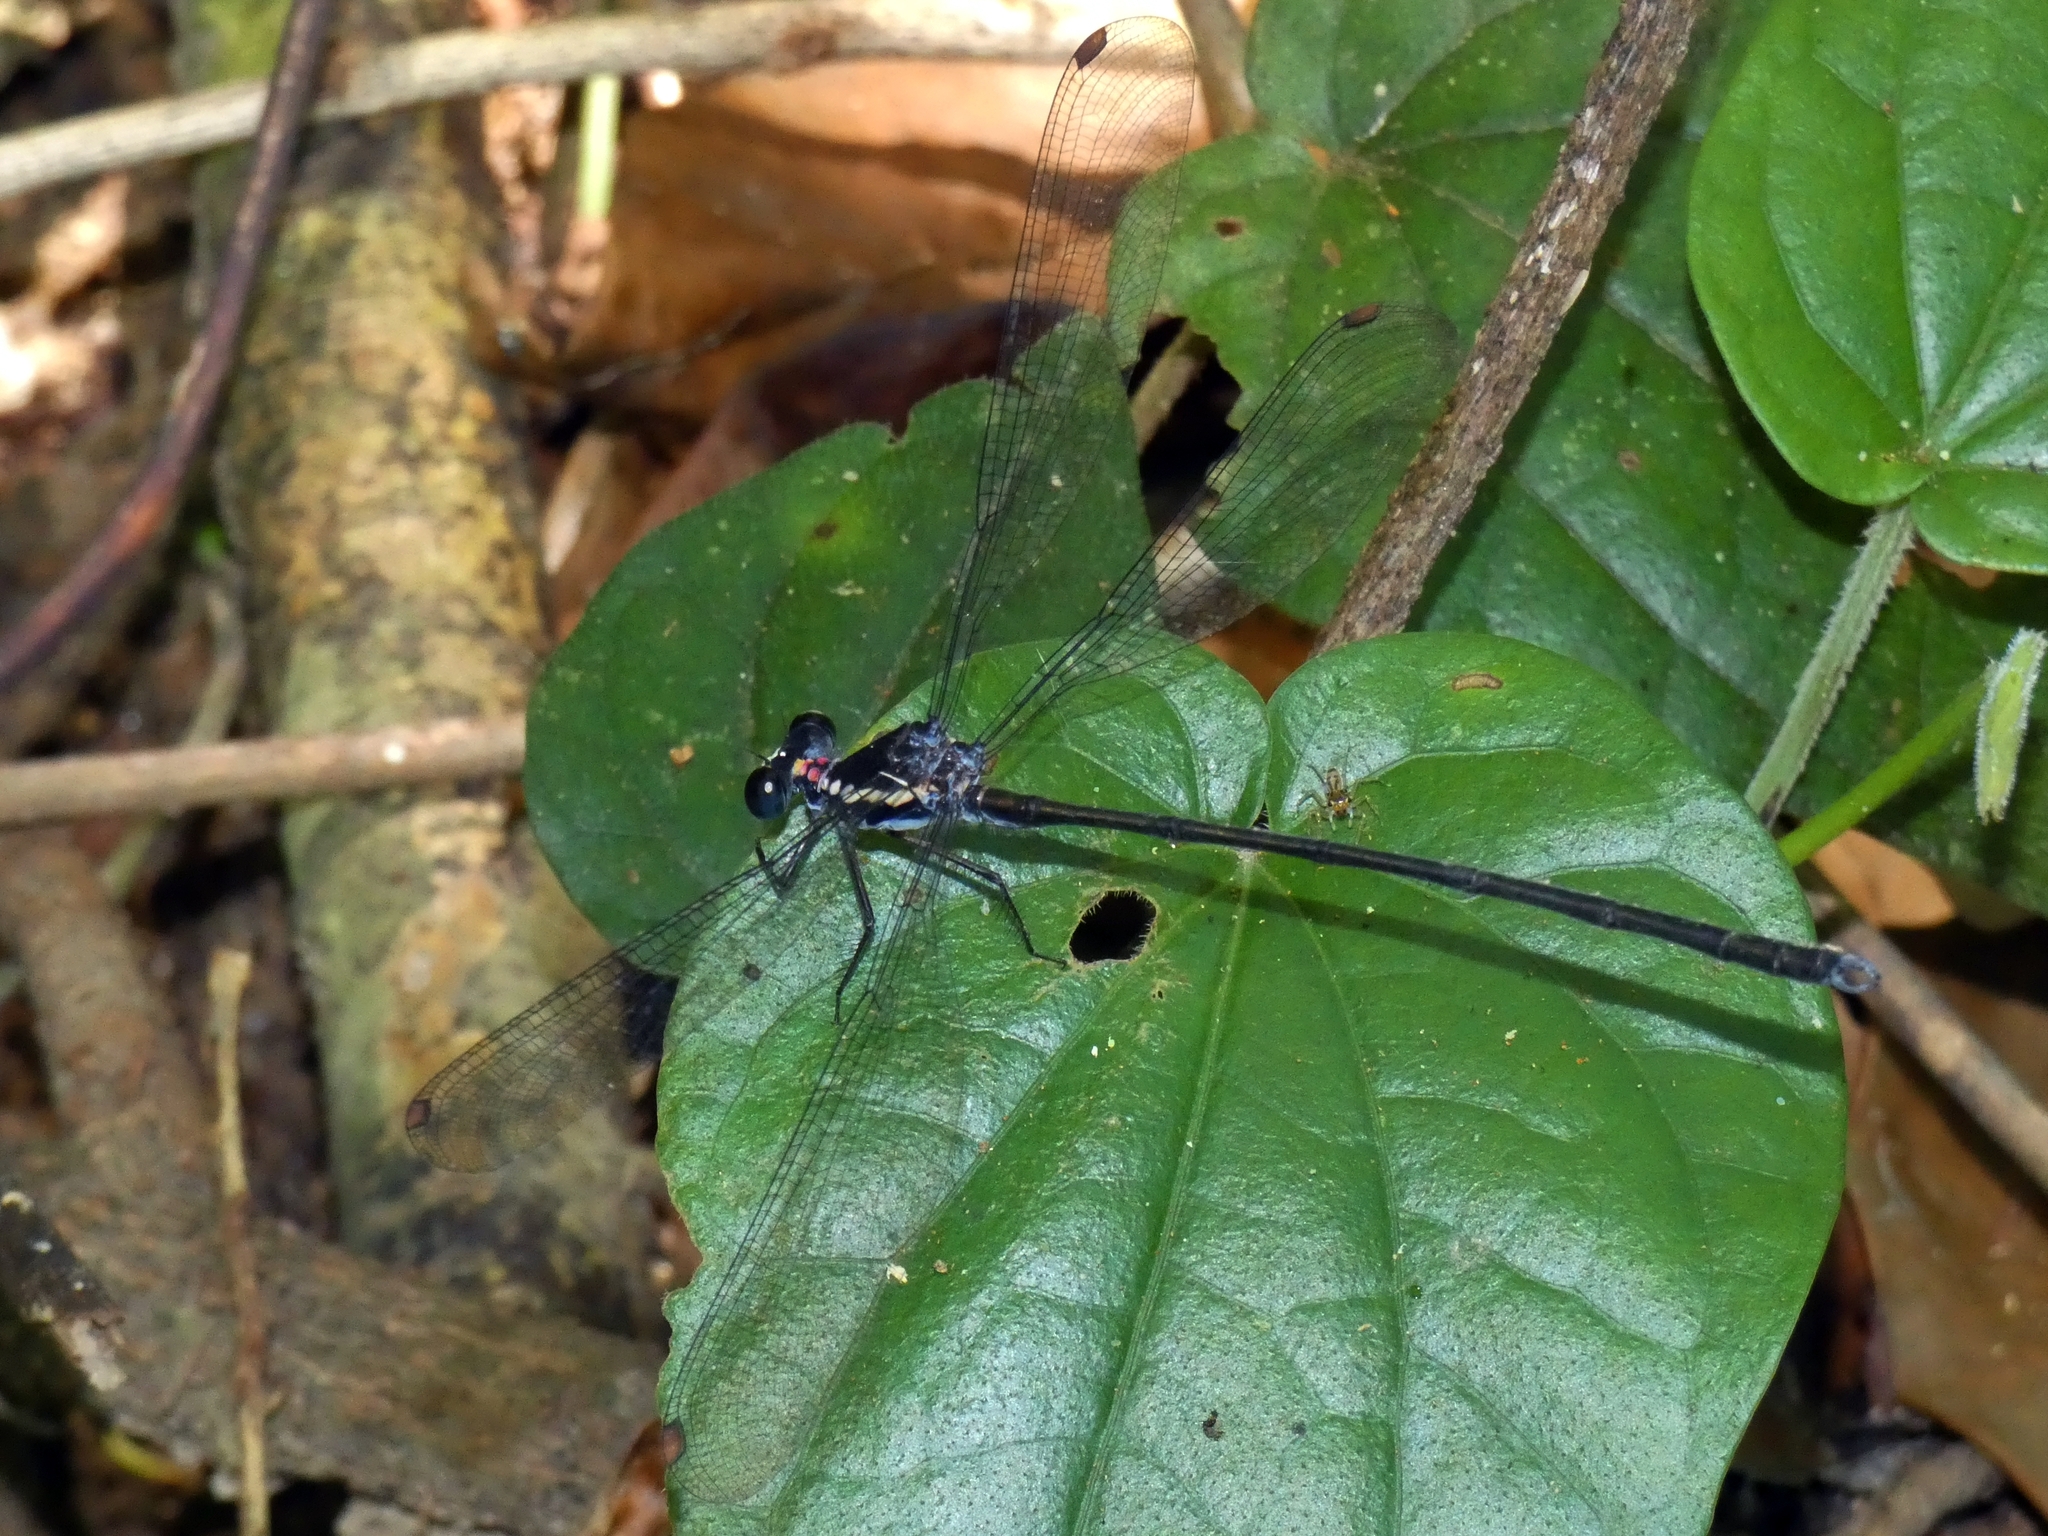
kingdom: Animalia
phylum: Arthropoda
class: Insecta
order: Odonata
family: Argiolestidae
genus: Podopteryx
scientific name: Podopteryx selysi
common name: Treehole flatwing
